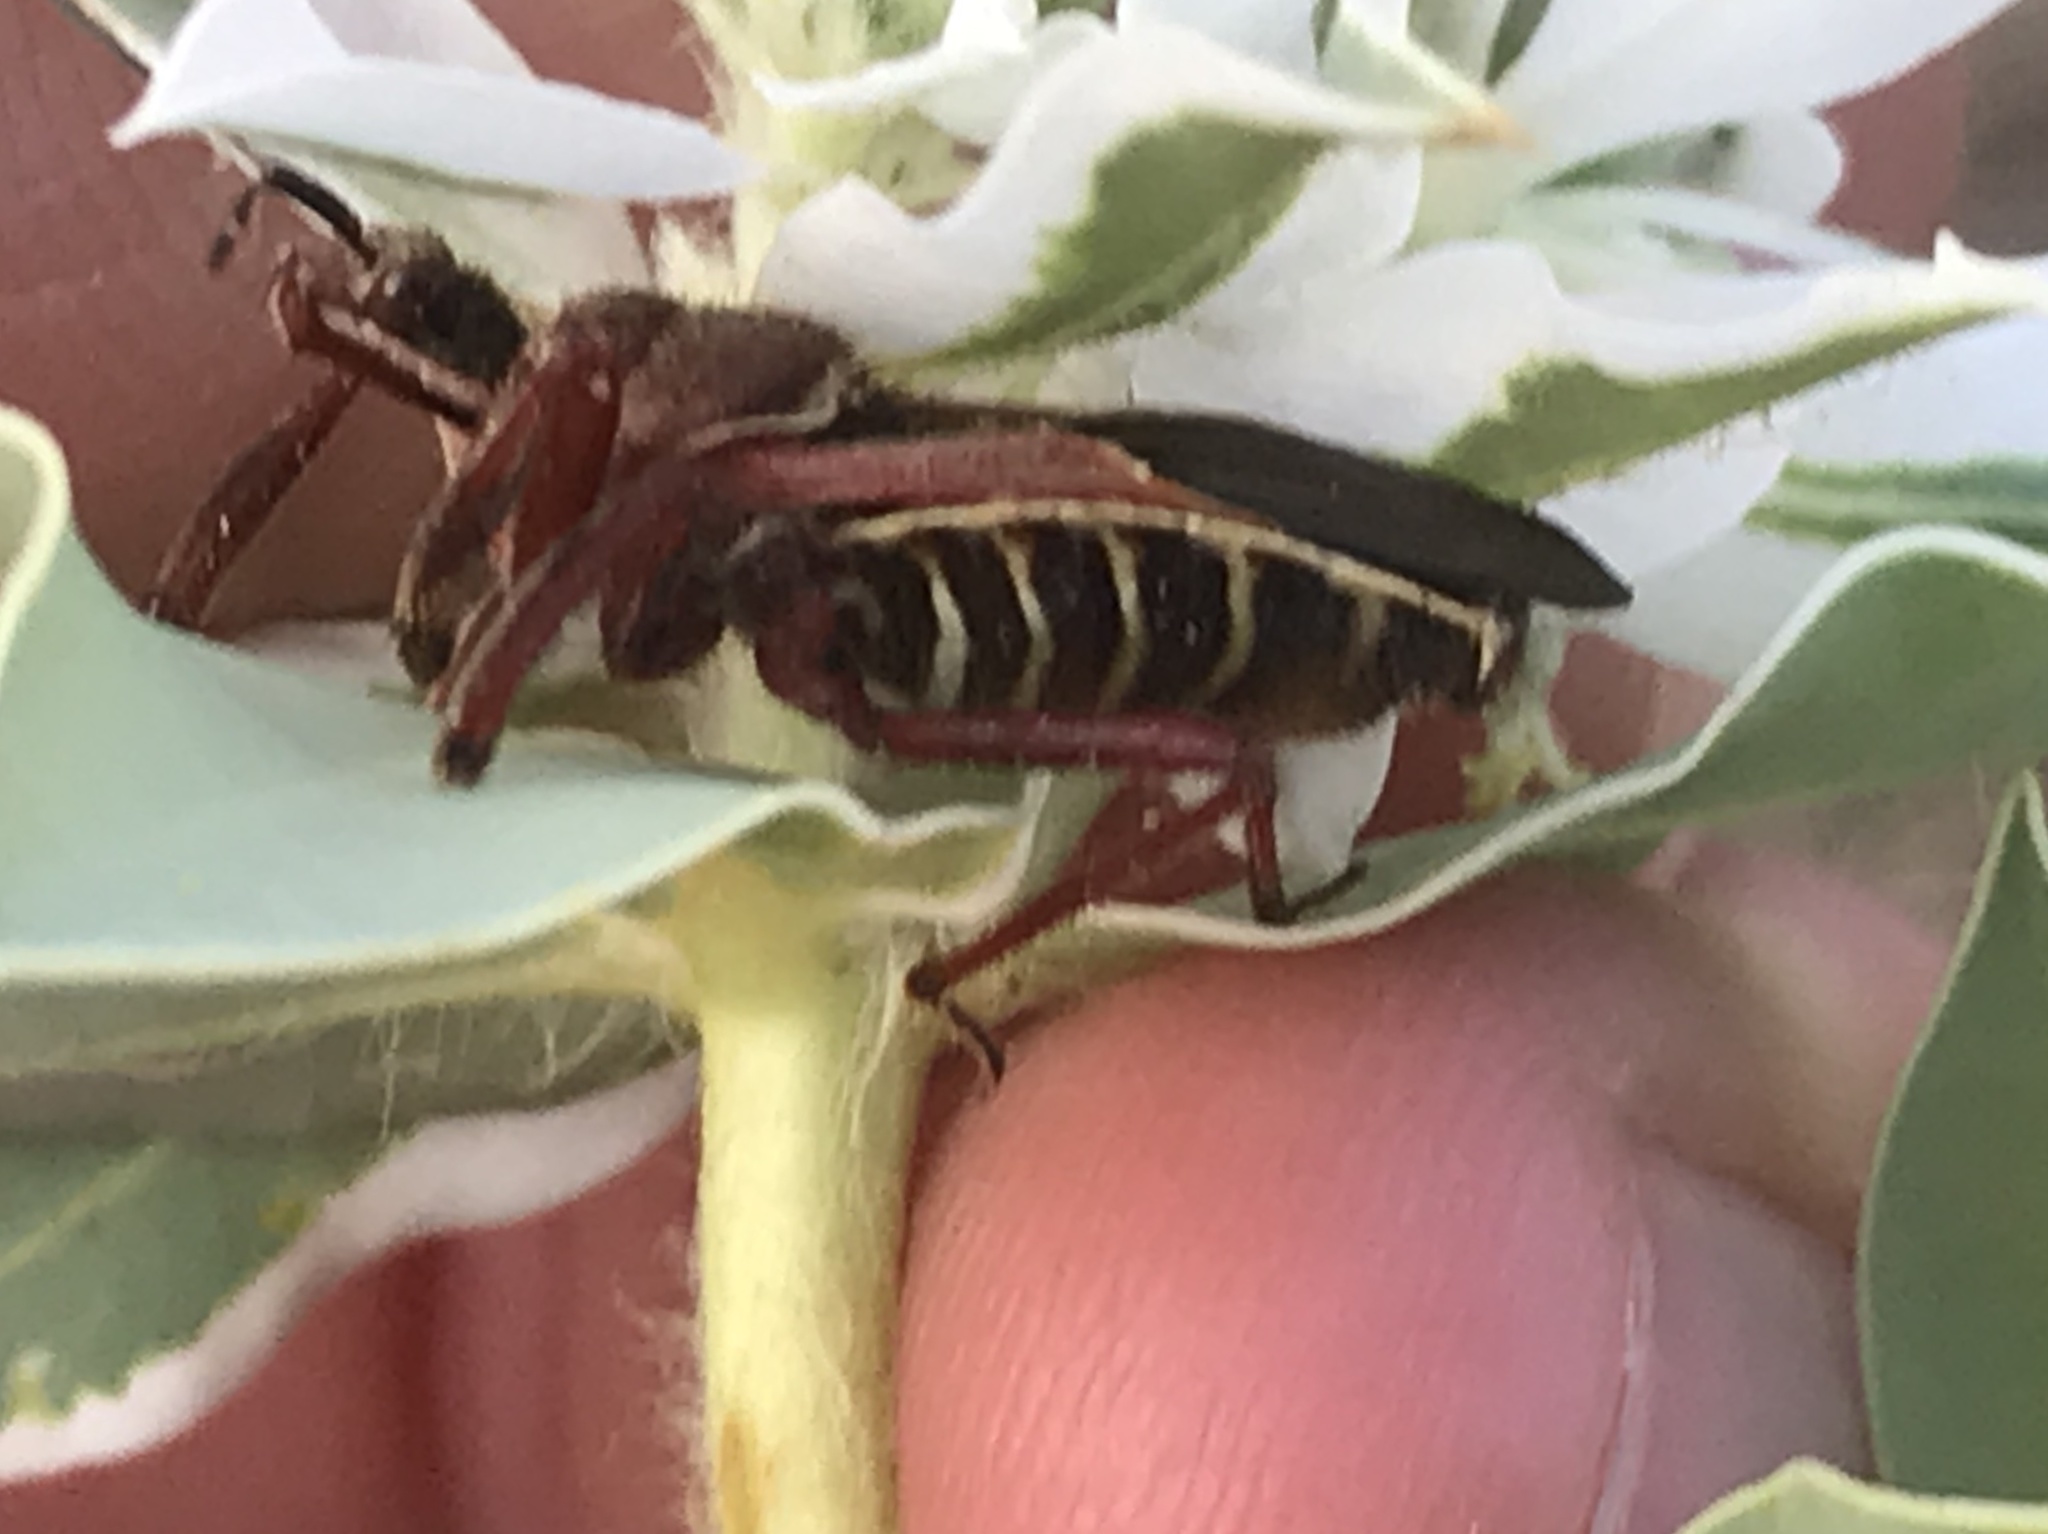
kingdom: Animalia
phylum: Arthropoda
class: Insecta
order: Hemiptera
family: Reduviidae
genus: Apiomerus
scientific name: Apiomerus spissipes
